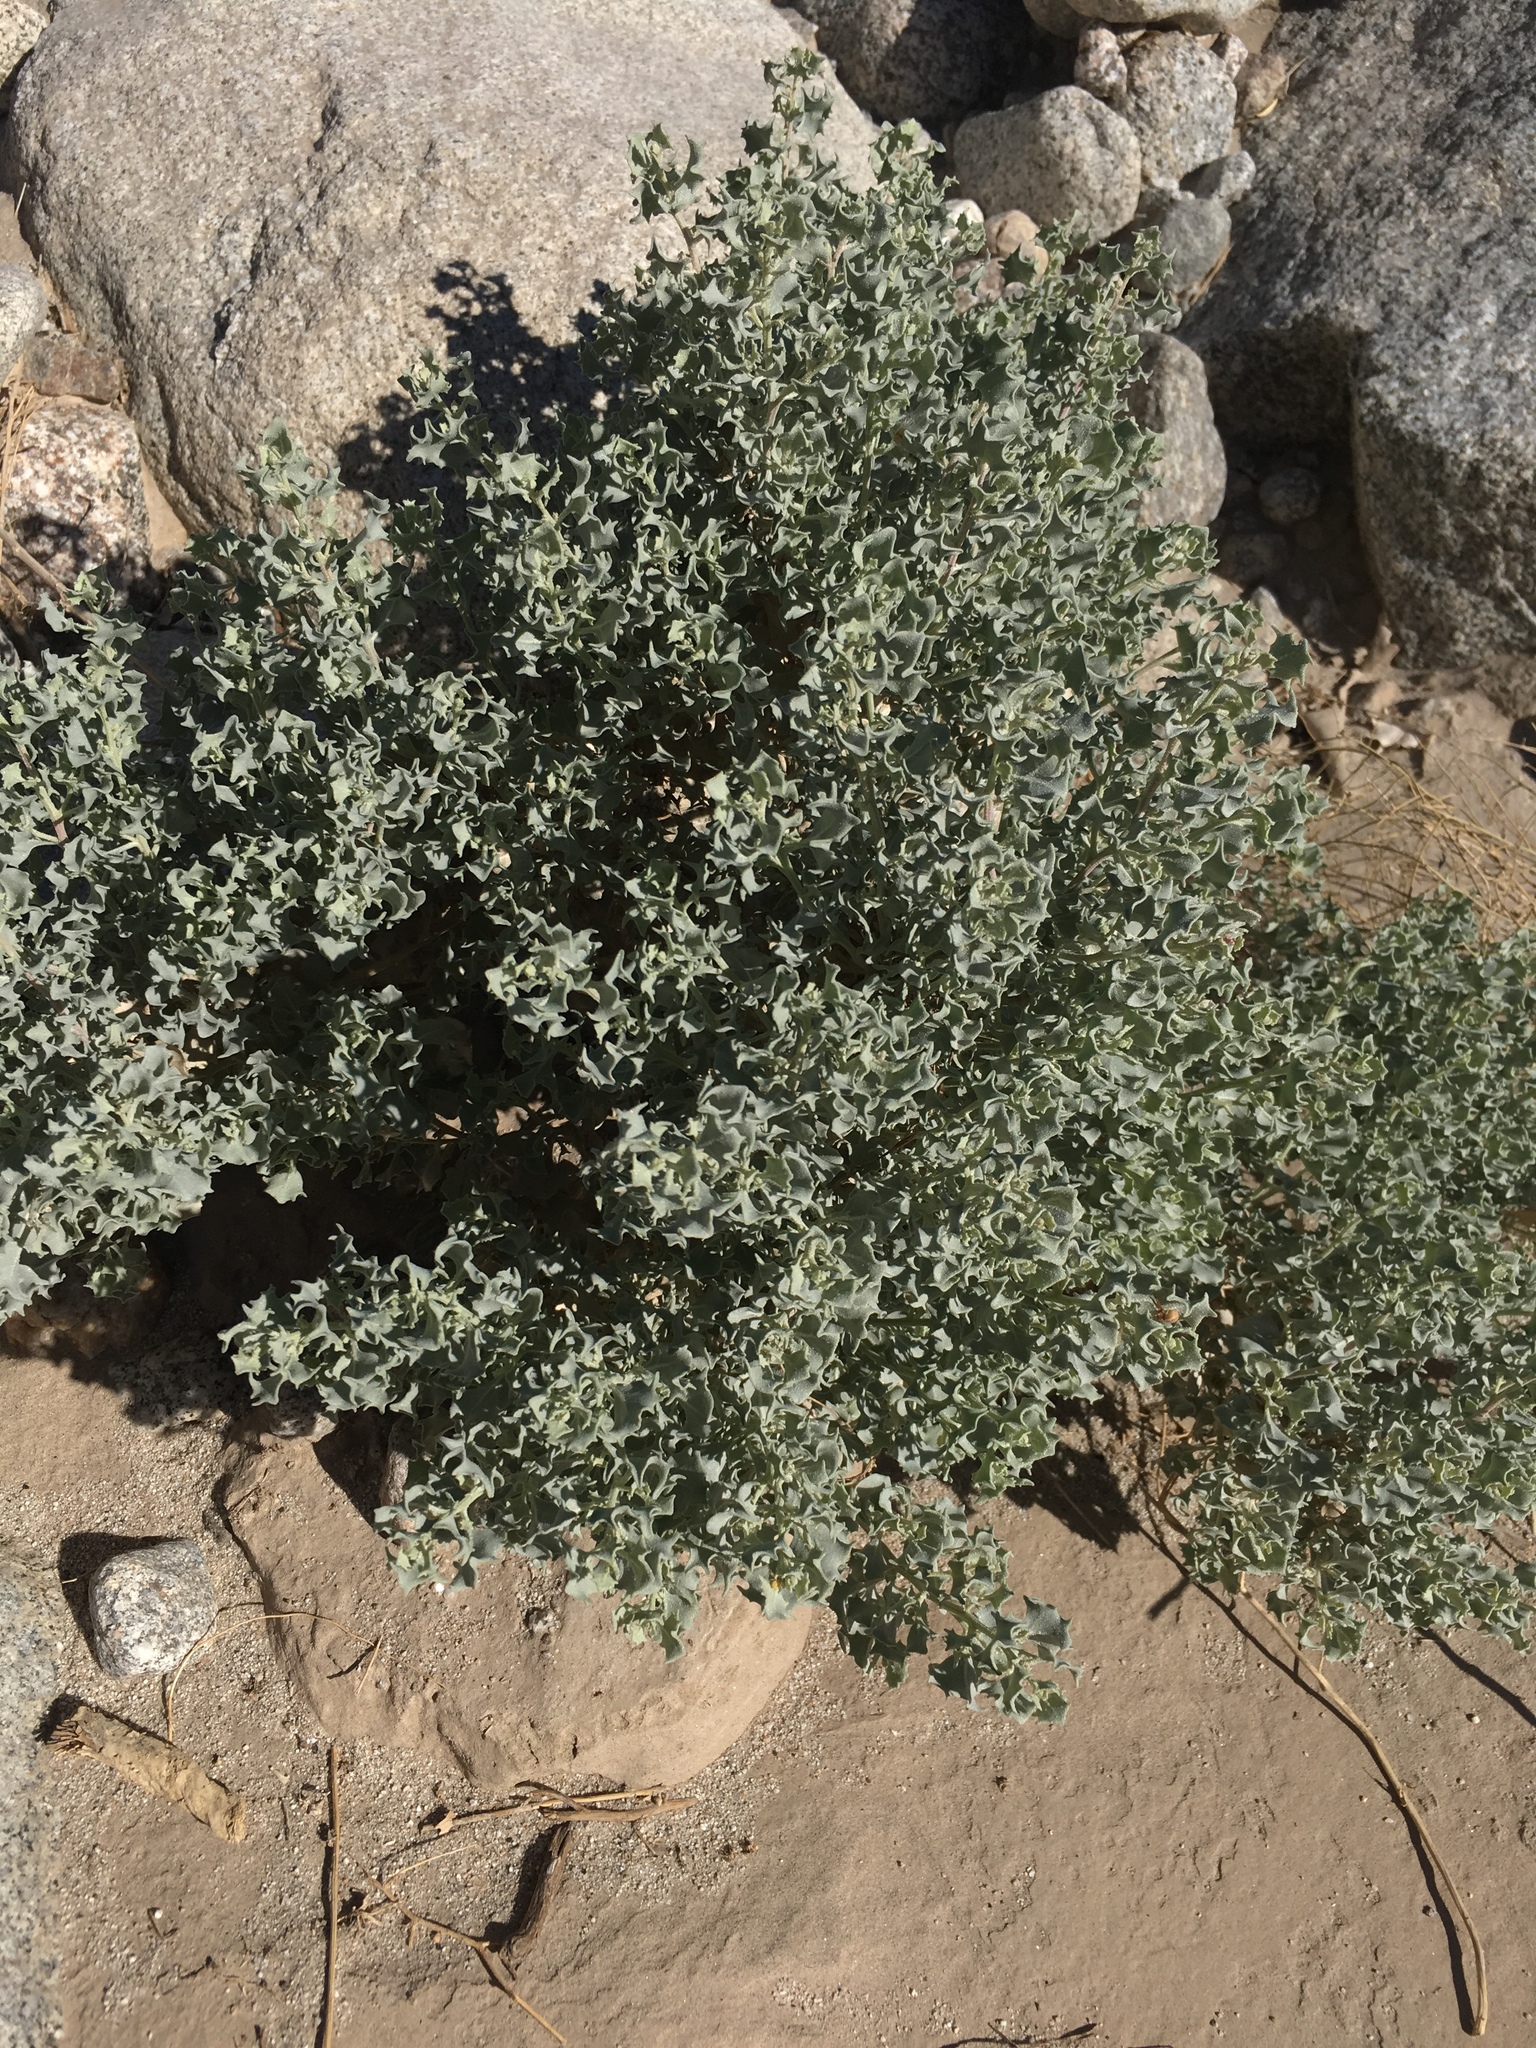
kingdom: Plantae
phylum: Tracheophyta
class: Magnoliopsida
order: Caryophyllales
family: Amaranthaceae
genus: Atriplex
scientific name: Atriplex hymenelytra
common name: Desert-holly
